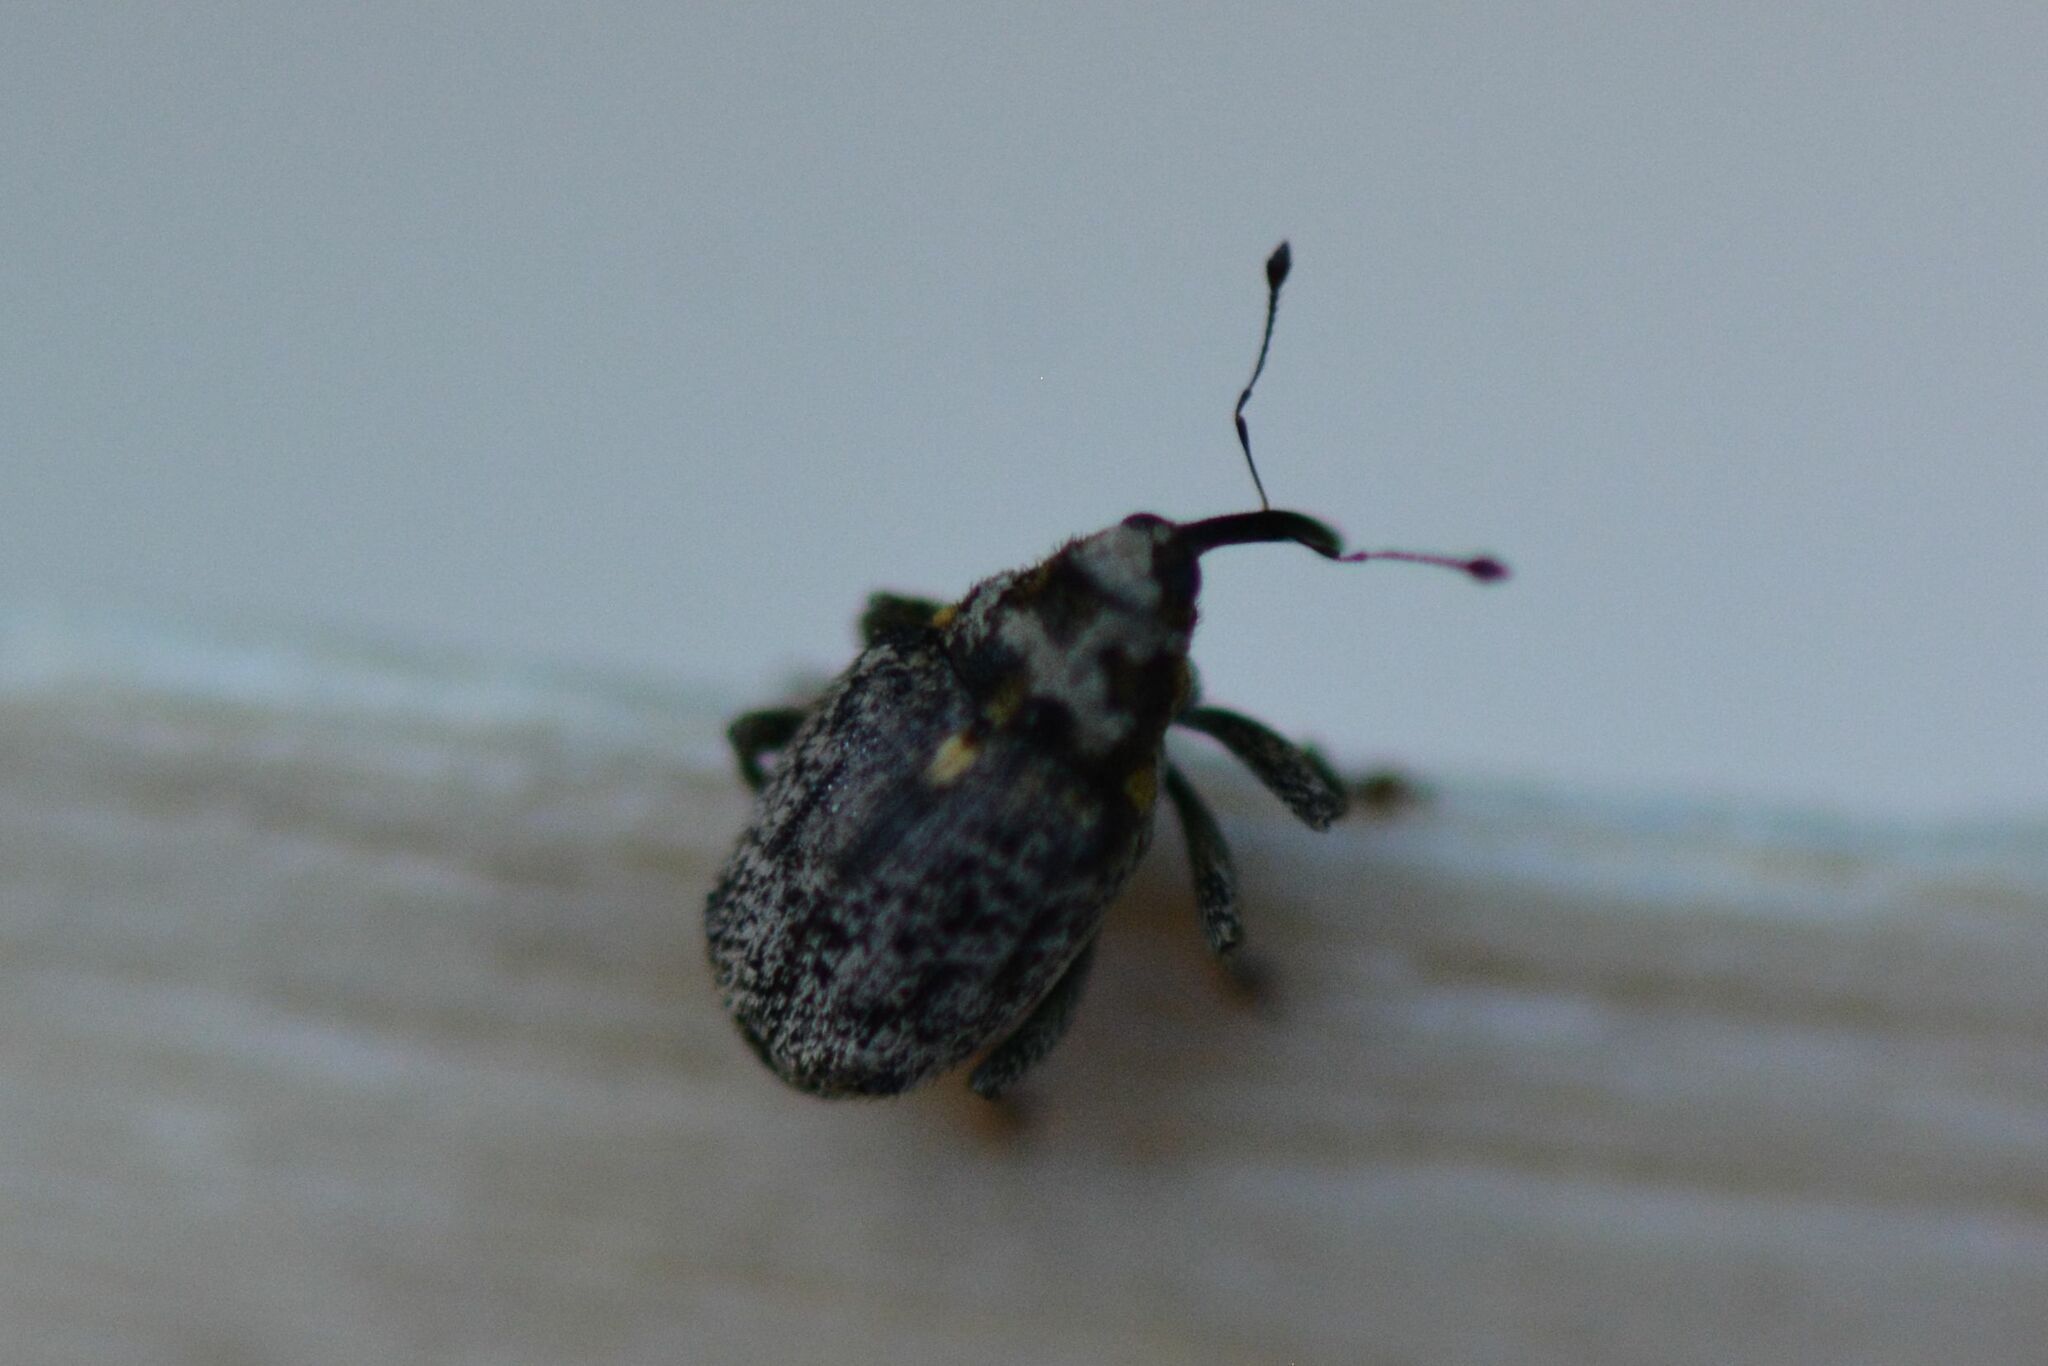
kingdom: Animalia
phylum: Arthropoda
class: Insecta
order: Coleoptera
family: Curculionidae
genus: Ceutorhynchus
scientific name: Ceutorhynchus pallidactylus
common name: Cabbage stem weavil
